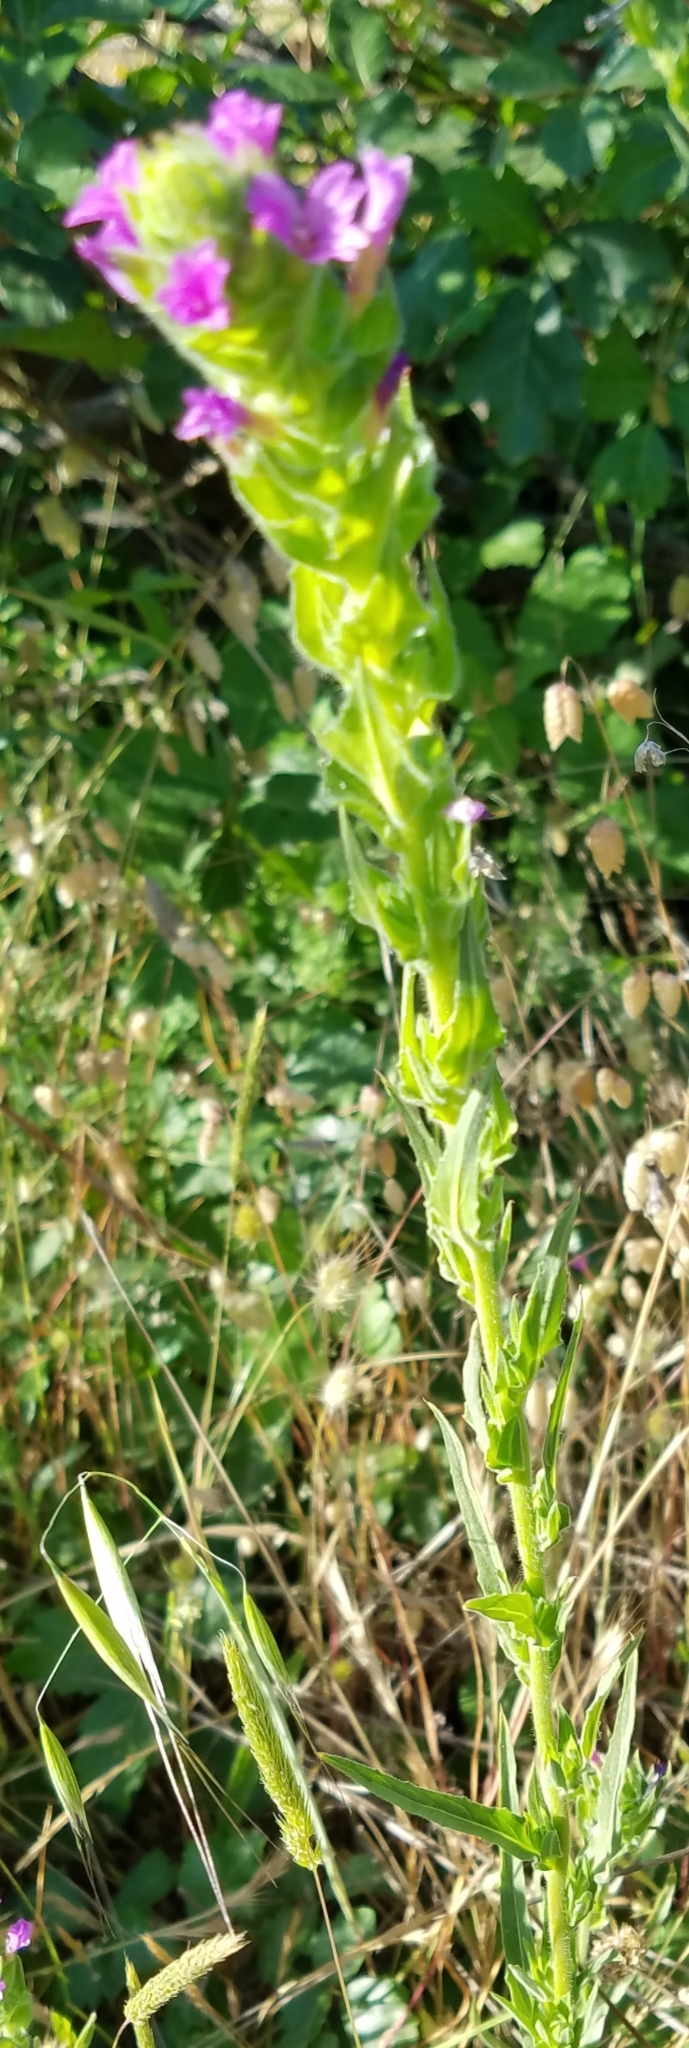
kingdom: Plantae
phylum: Tracheophyta
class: Magnoliopsida
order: Myrtales
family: Onagraceae
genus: Epilobium
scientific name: Epilobium densiflorum
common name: Dense spike-primrose
